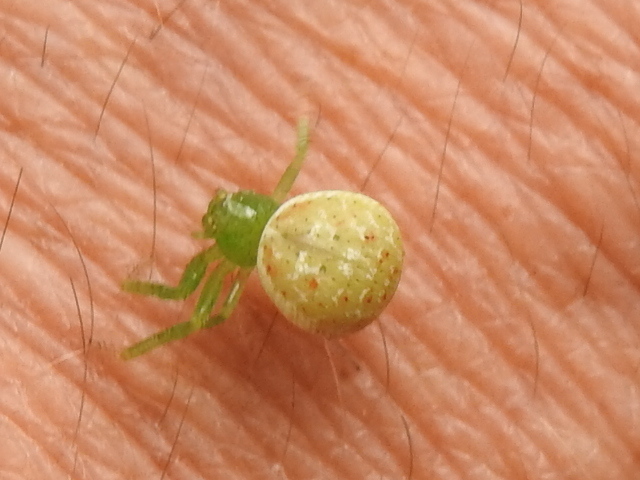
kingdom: Animalia
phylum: Arthropoda
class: Arachnida
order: Araneae
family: Thomisidae
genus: Synema
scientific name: Synema viridans
